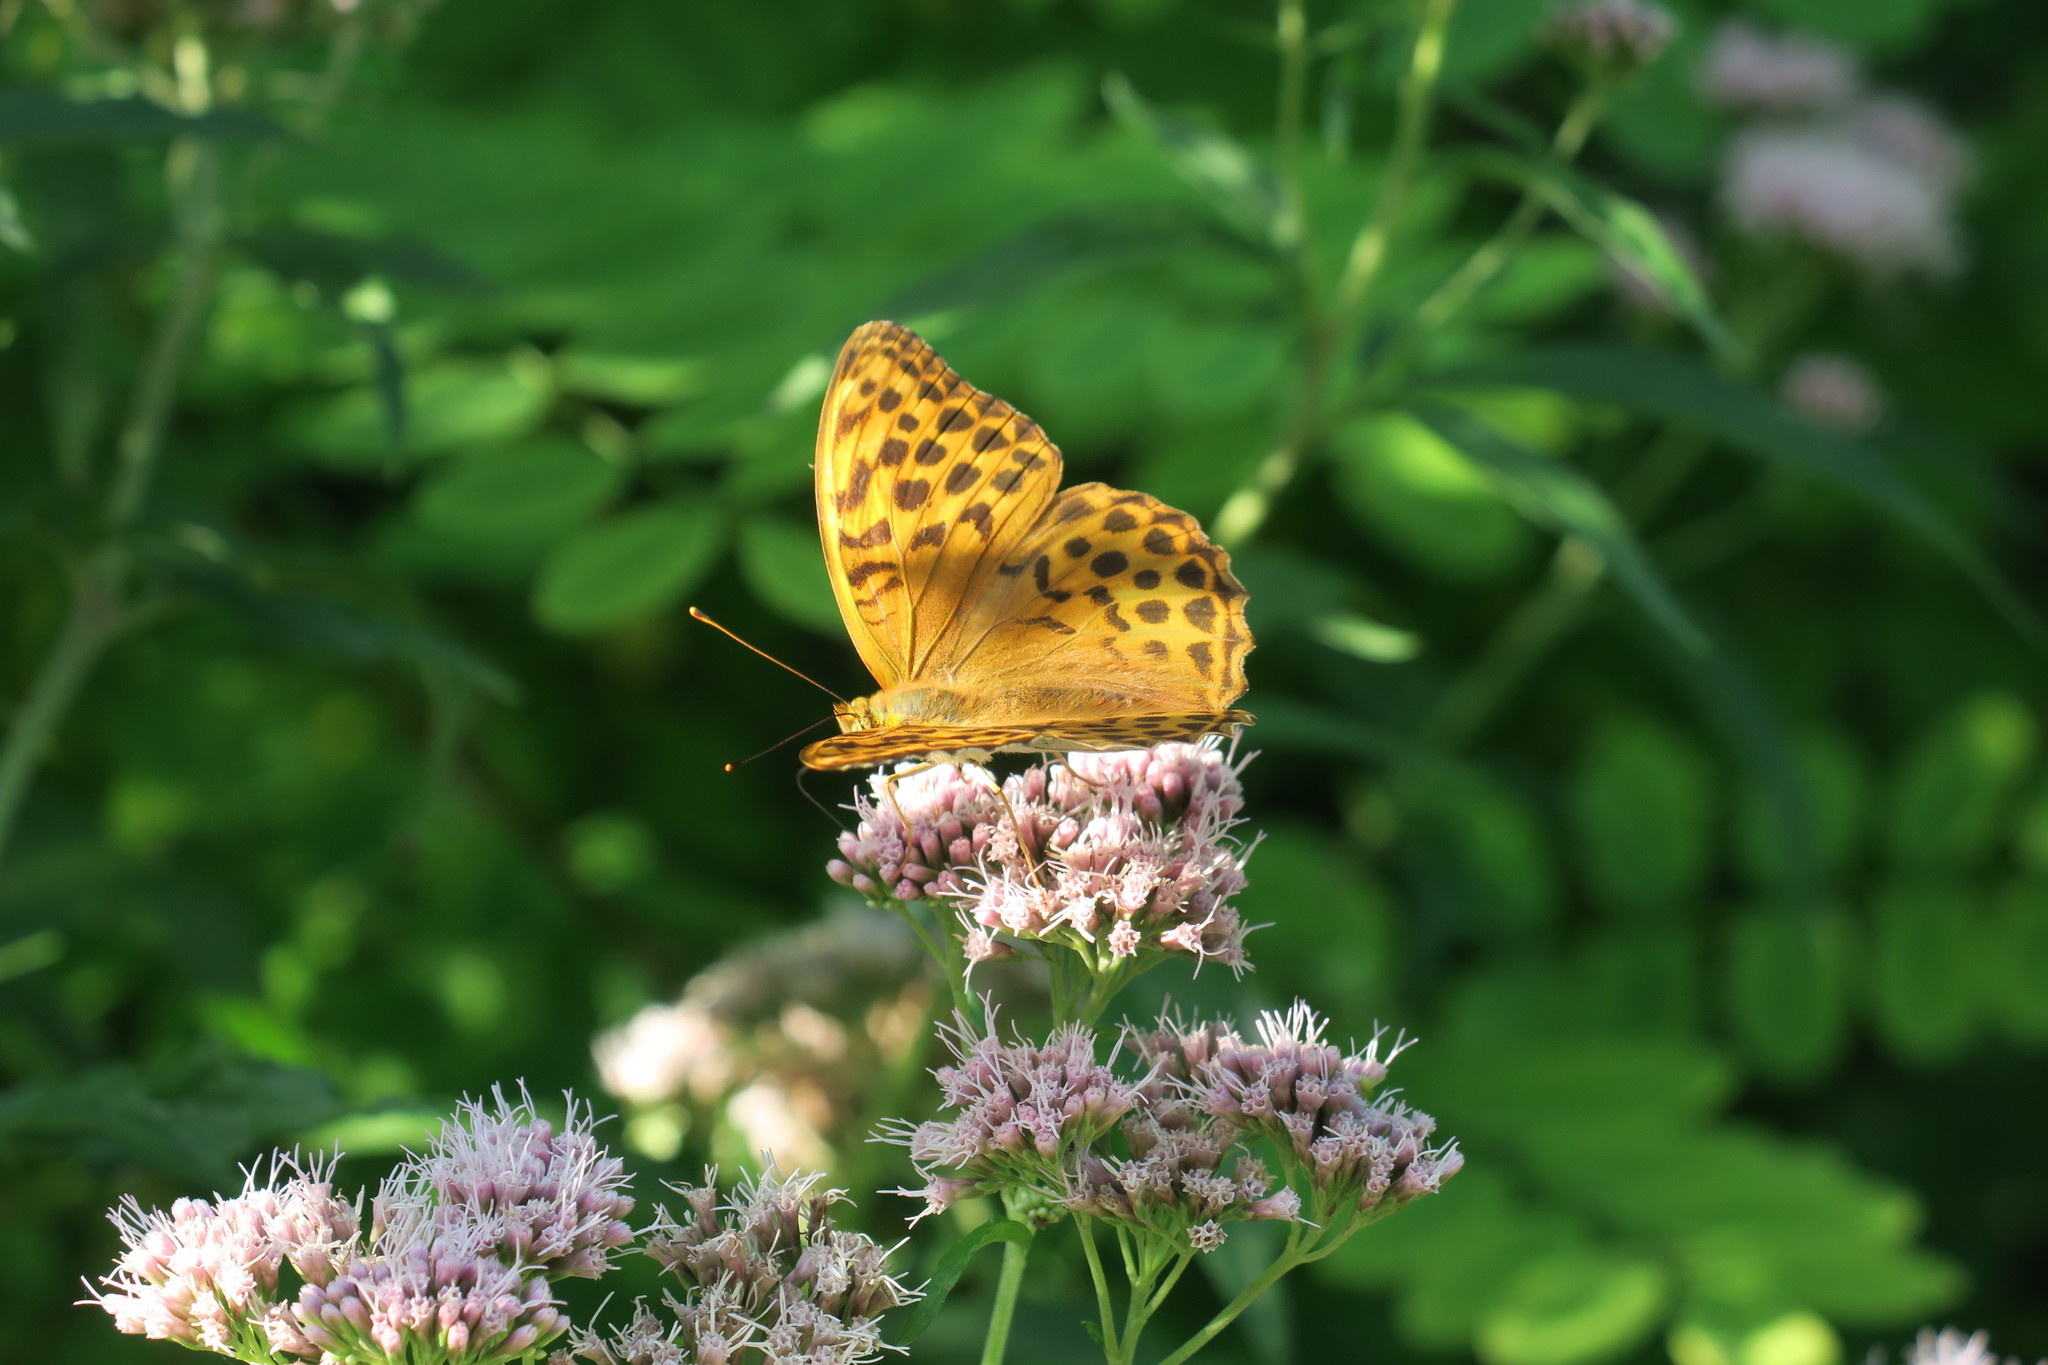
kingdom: Animalia
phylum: Arthropoda
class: Insecta
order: Lepidoptera
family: Nymphalidae
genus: Argynnis
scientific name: Argynnis paphia
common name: Silver-washed fritillary
